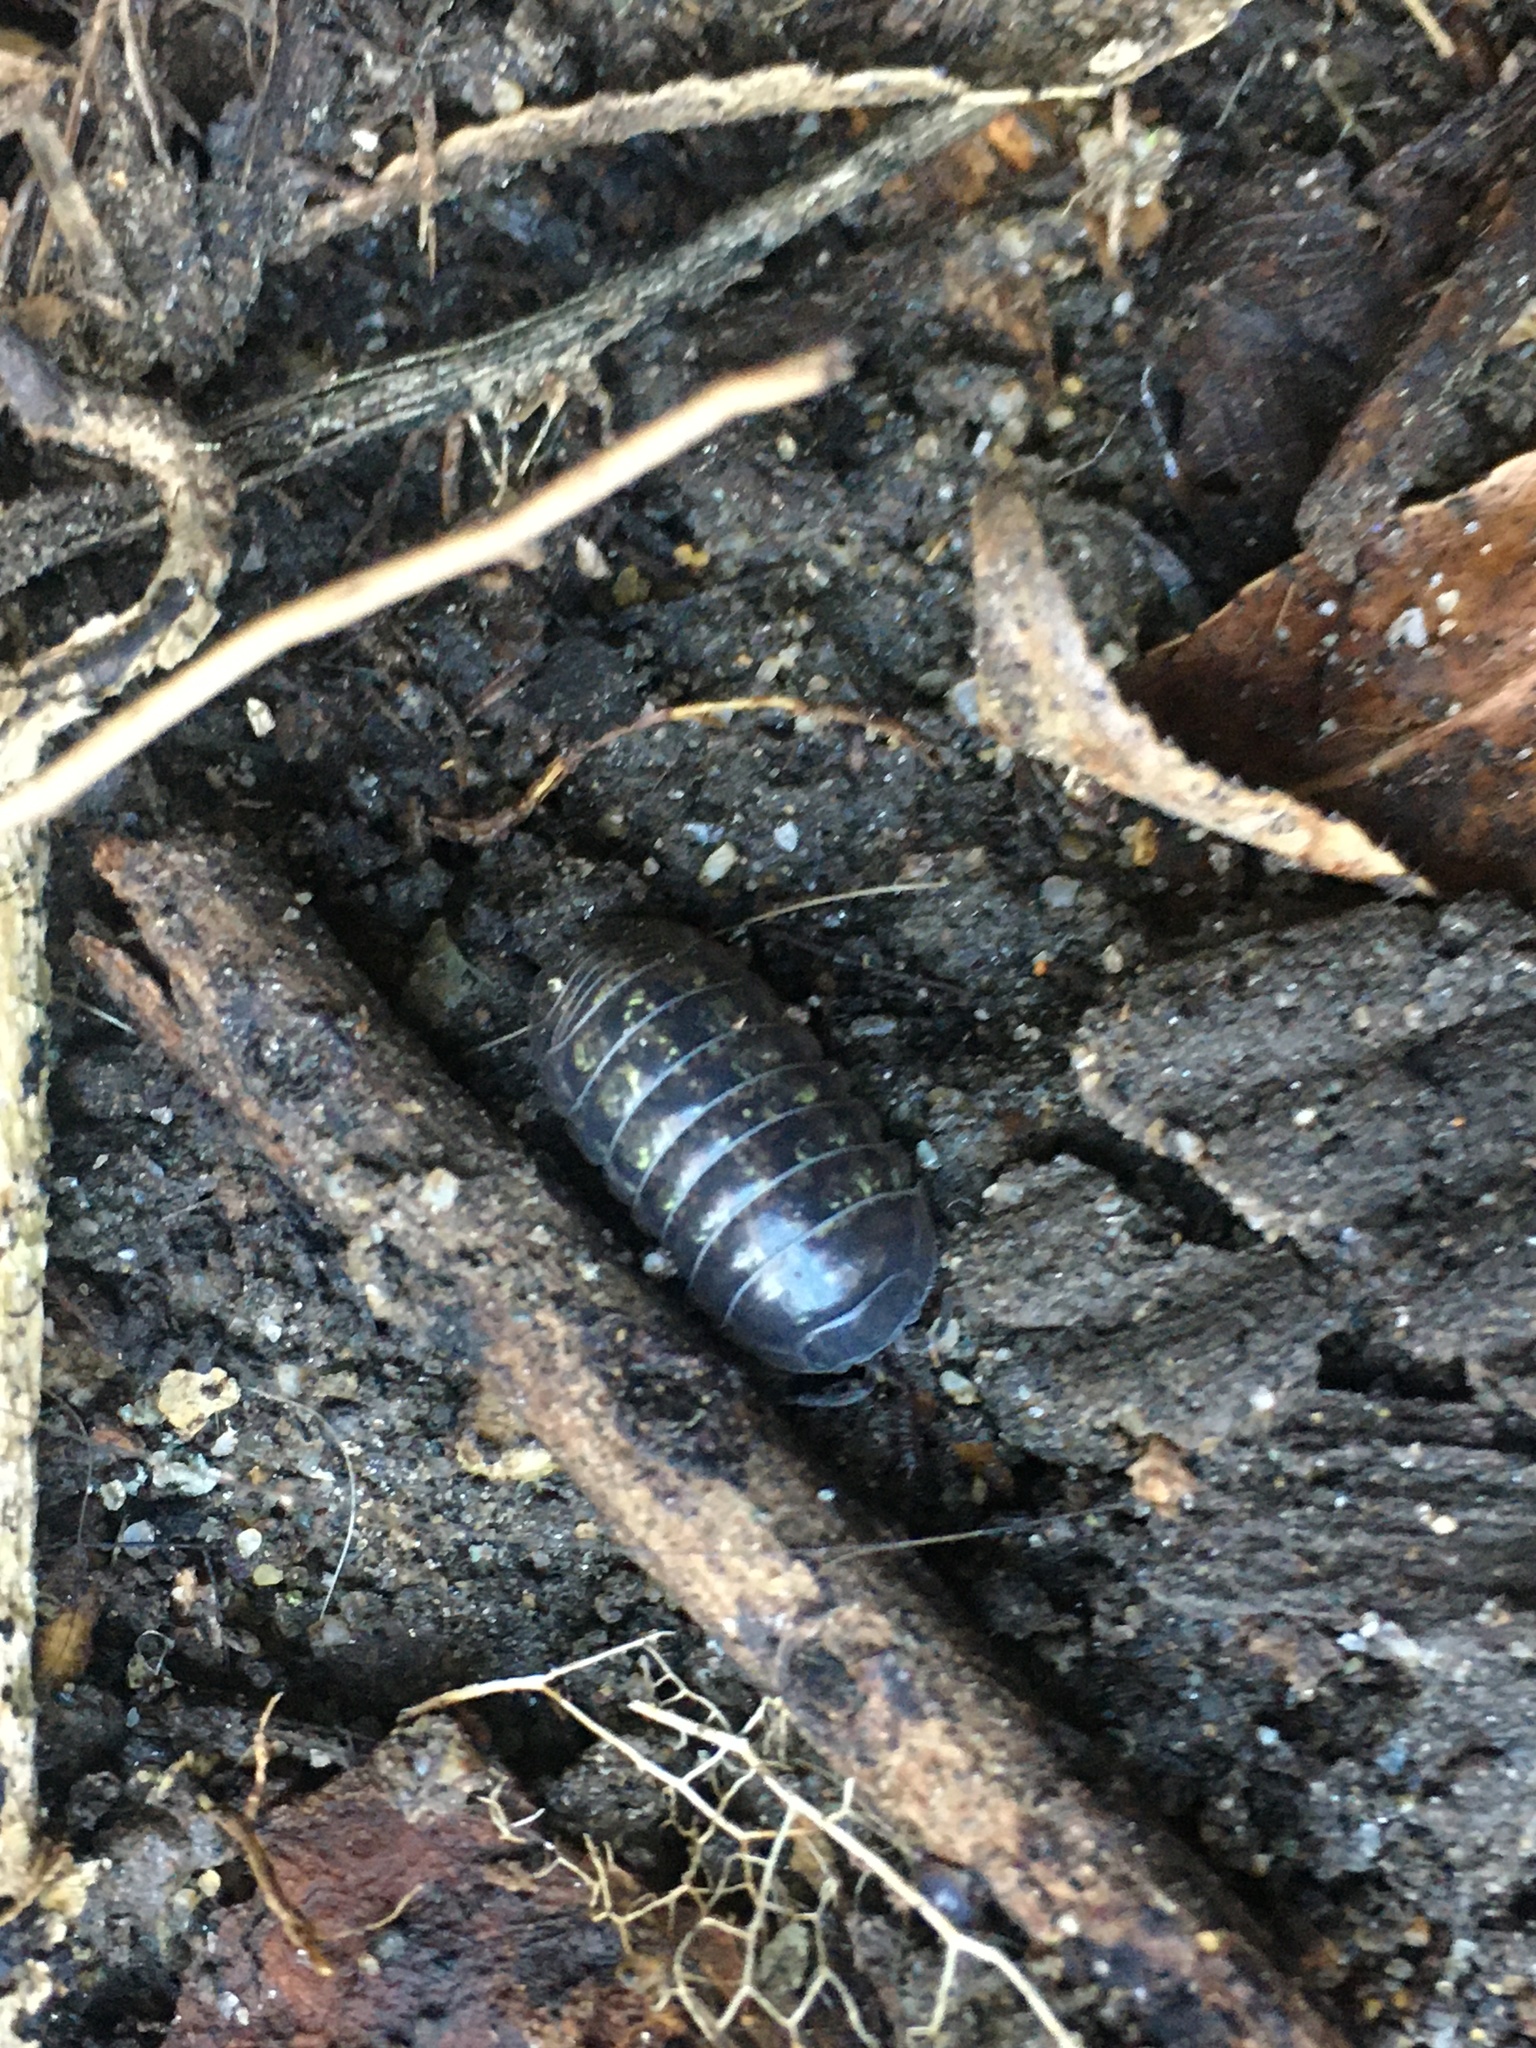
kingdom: Animalia
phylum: Arthropoda
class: Malacostraca
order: Isopoda
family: Armadillidiidae
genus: Armadillidium
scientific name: Armadillidium vulgare
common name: Common pill woodlouse
